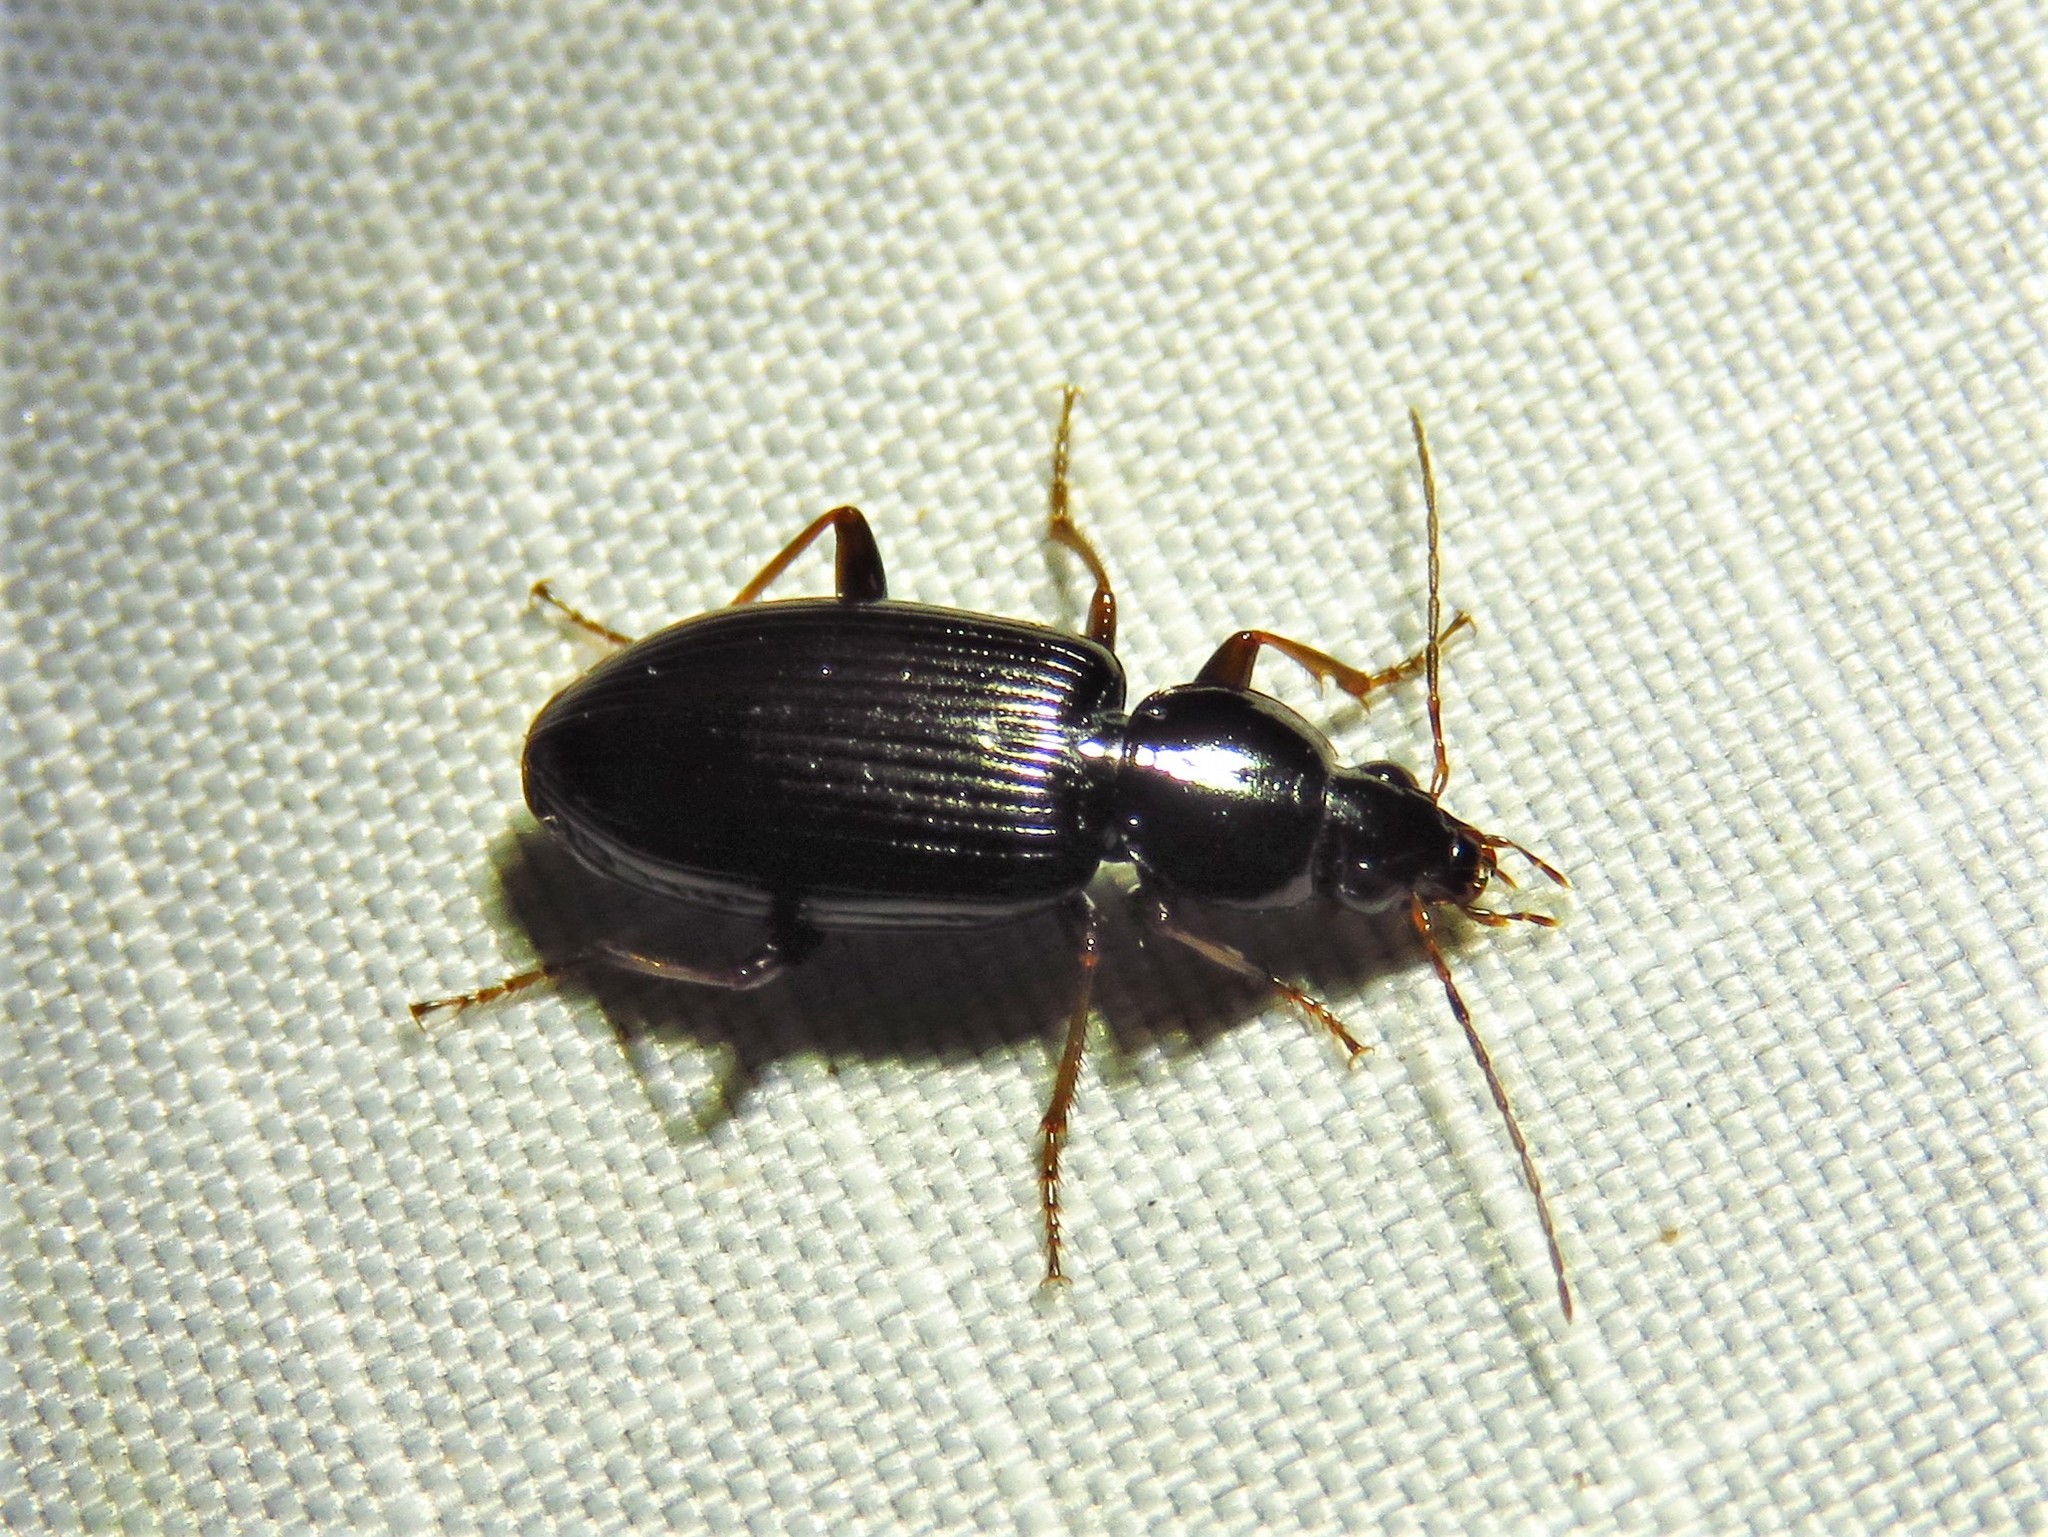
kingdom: Animalia
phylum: Arthropoda
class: Insecta
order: Coleoptera
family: Carabidae
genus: Agonum
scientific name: Agonum punctiforme
